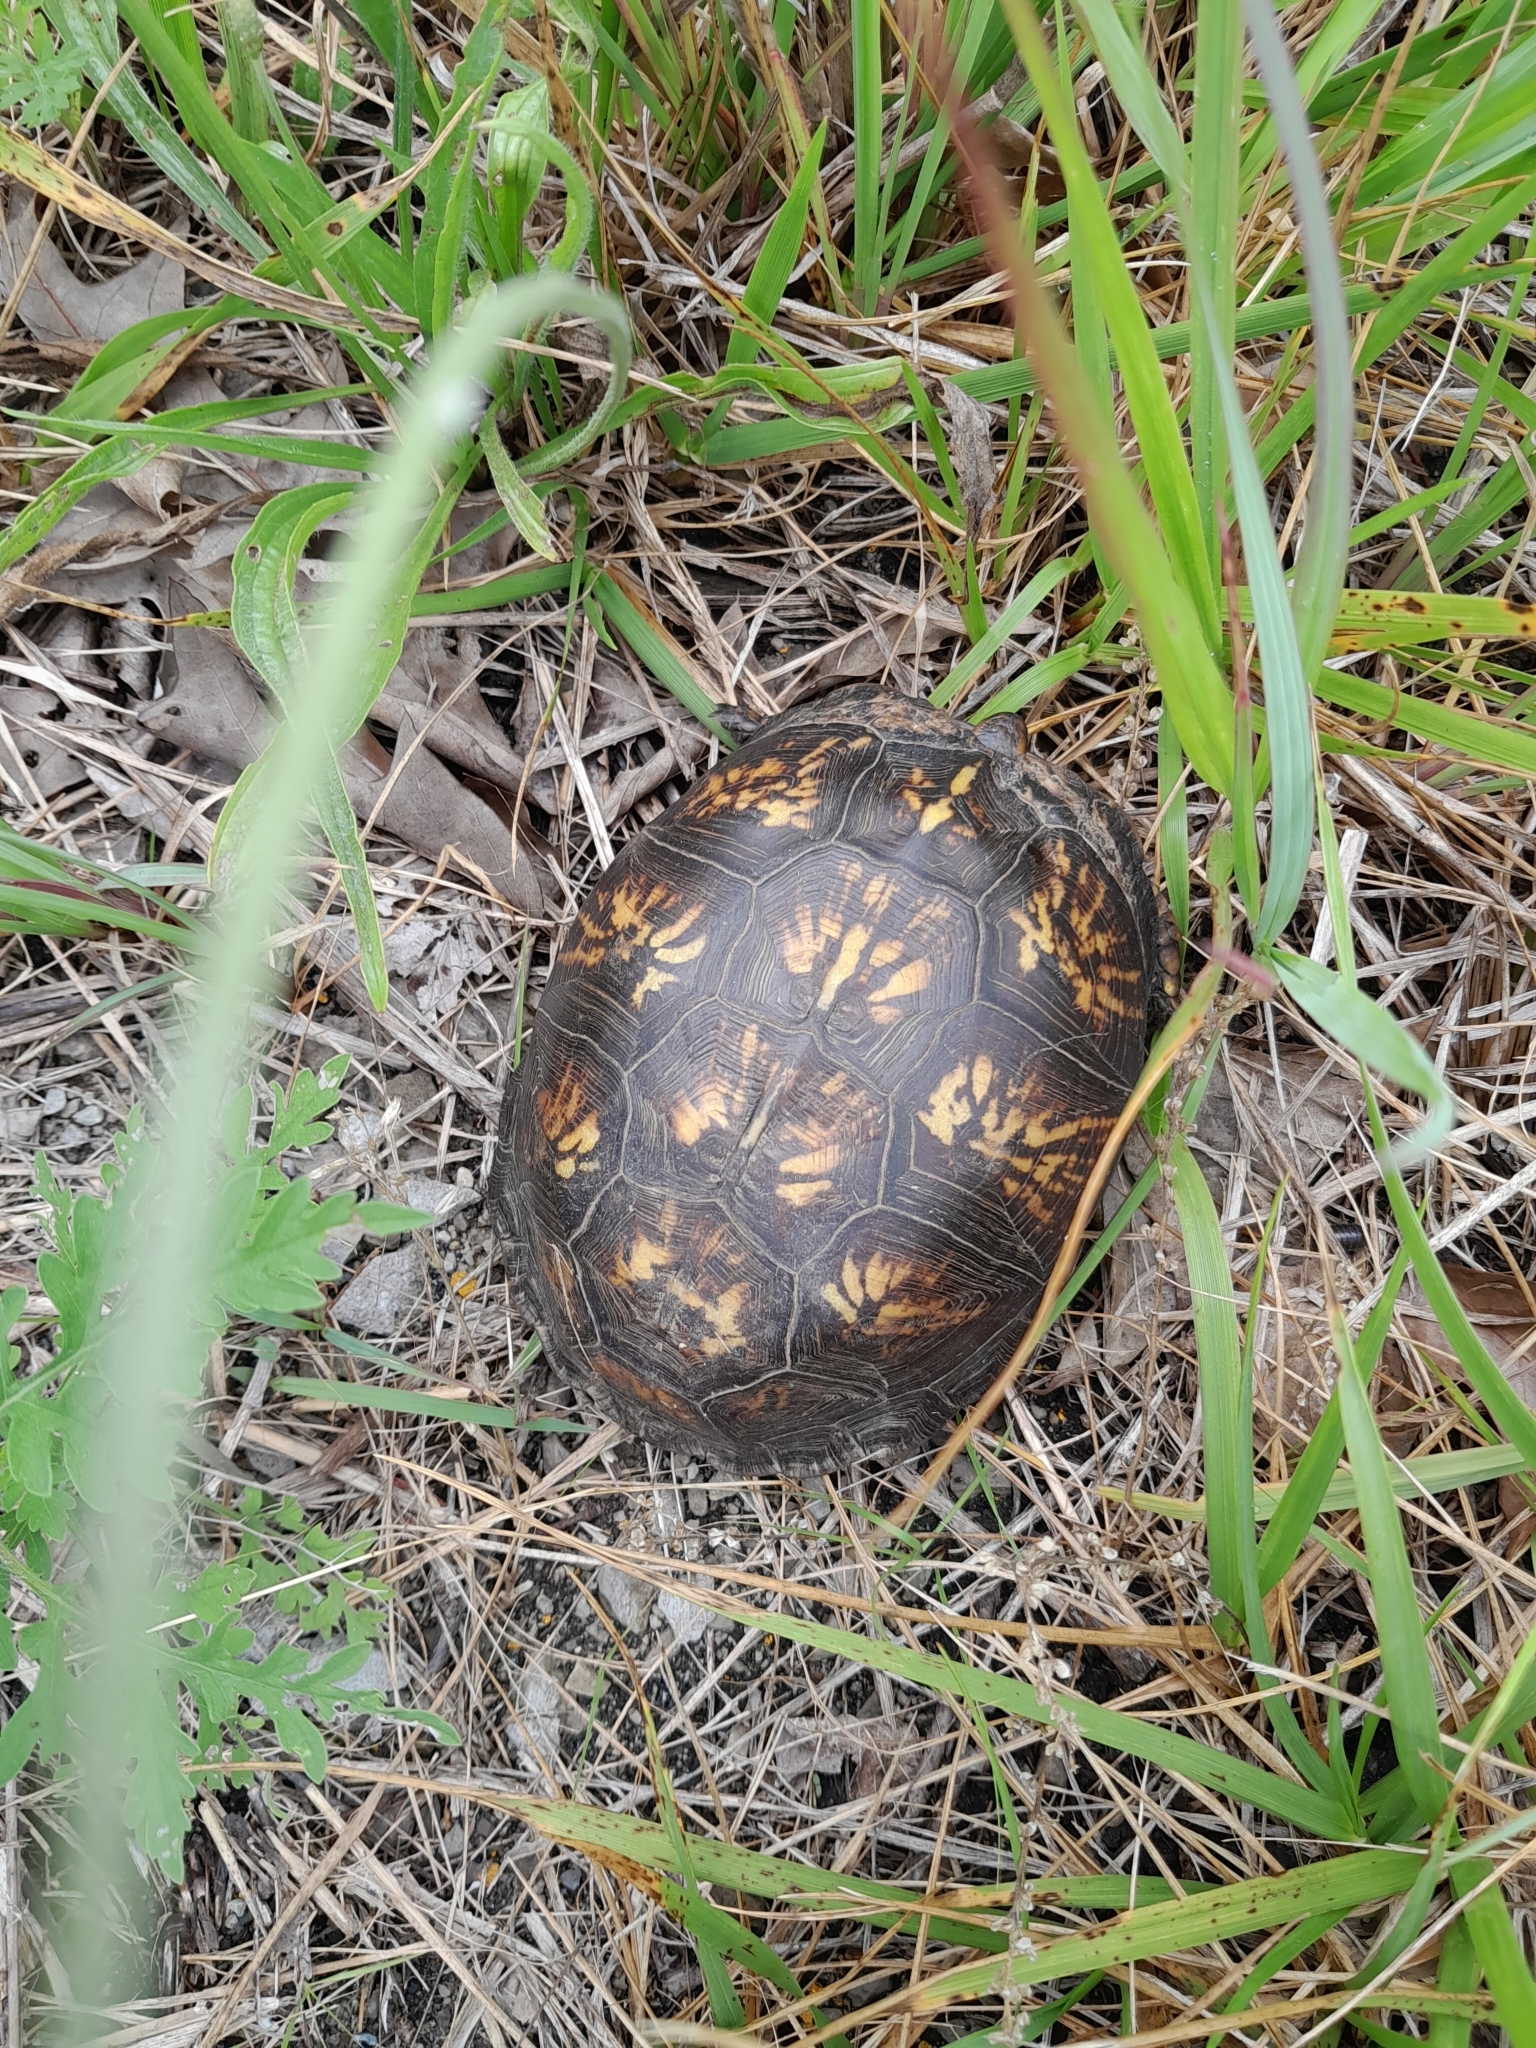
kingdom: Animalia
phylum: Chordata
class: Testudines
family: Emydidae
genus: Terrapene
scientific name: Terrapene carolina
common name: Common box turtle
